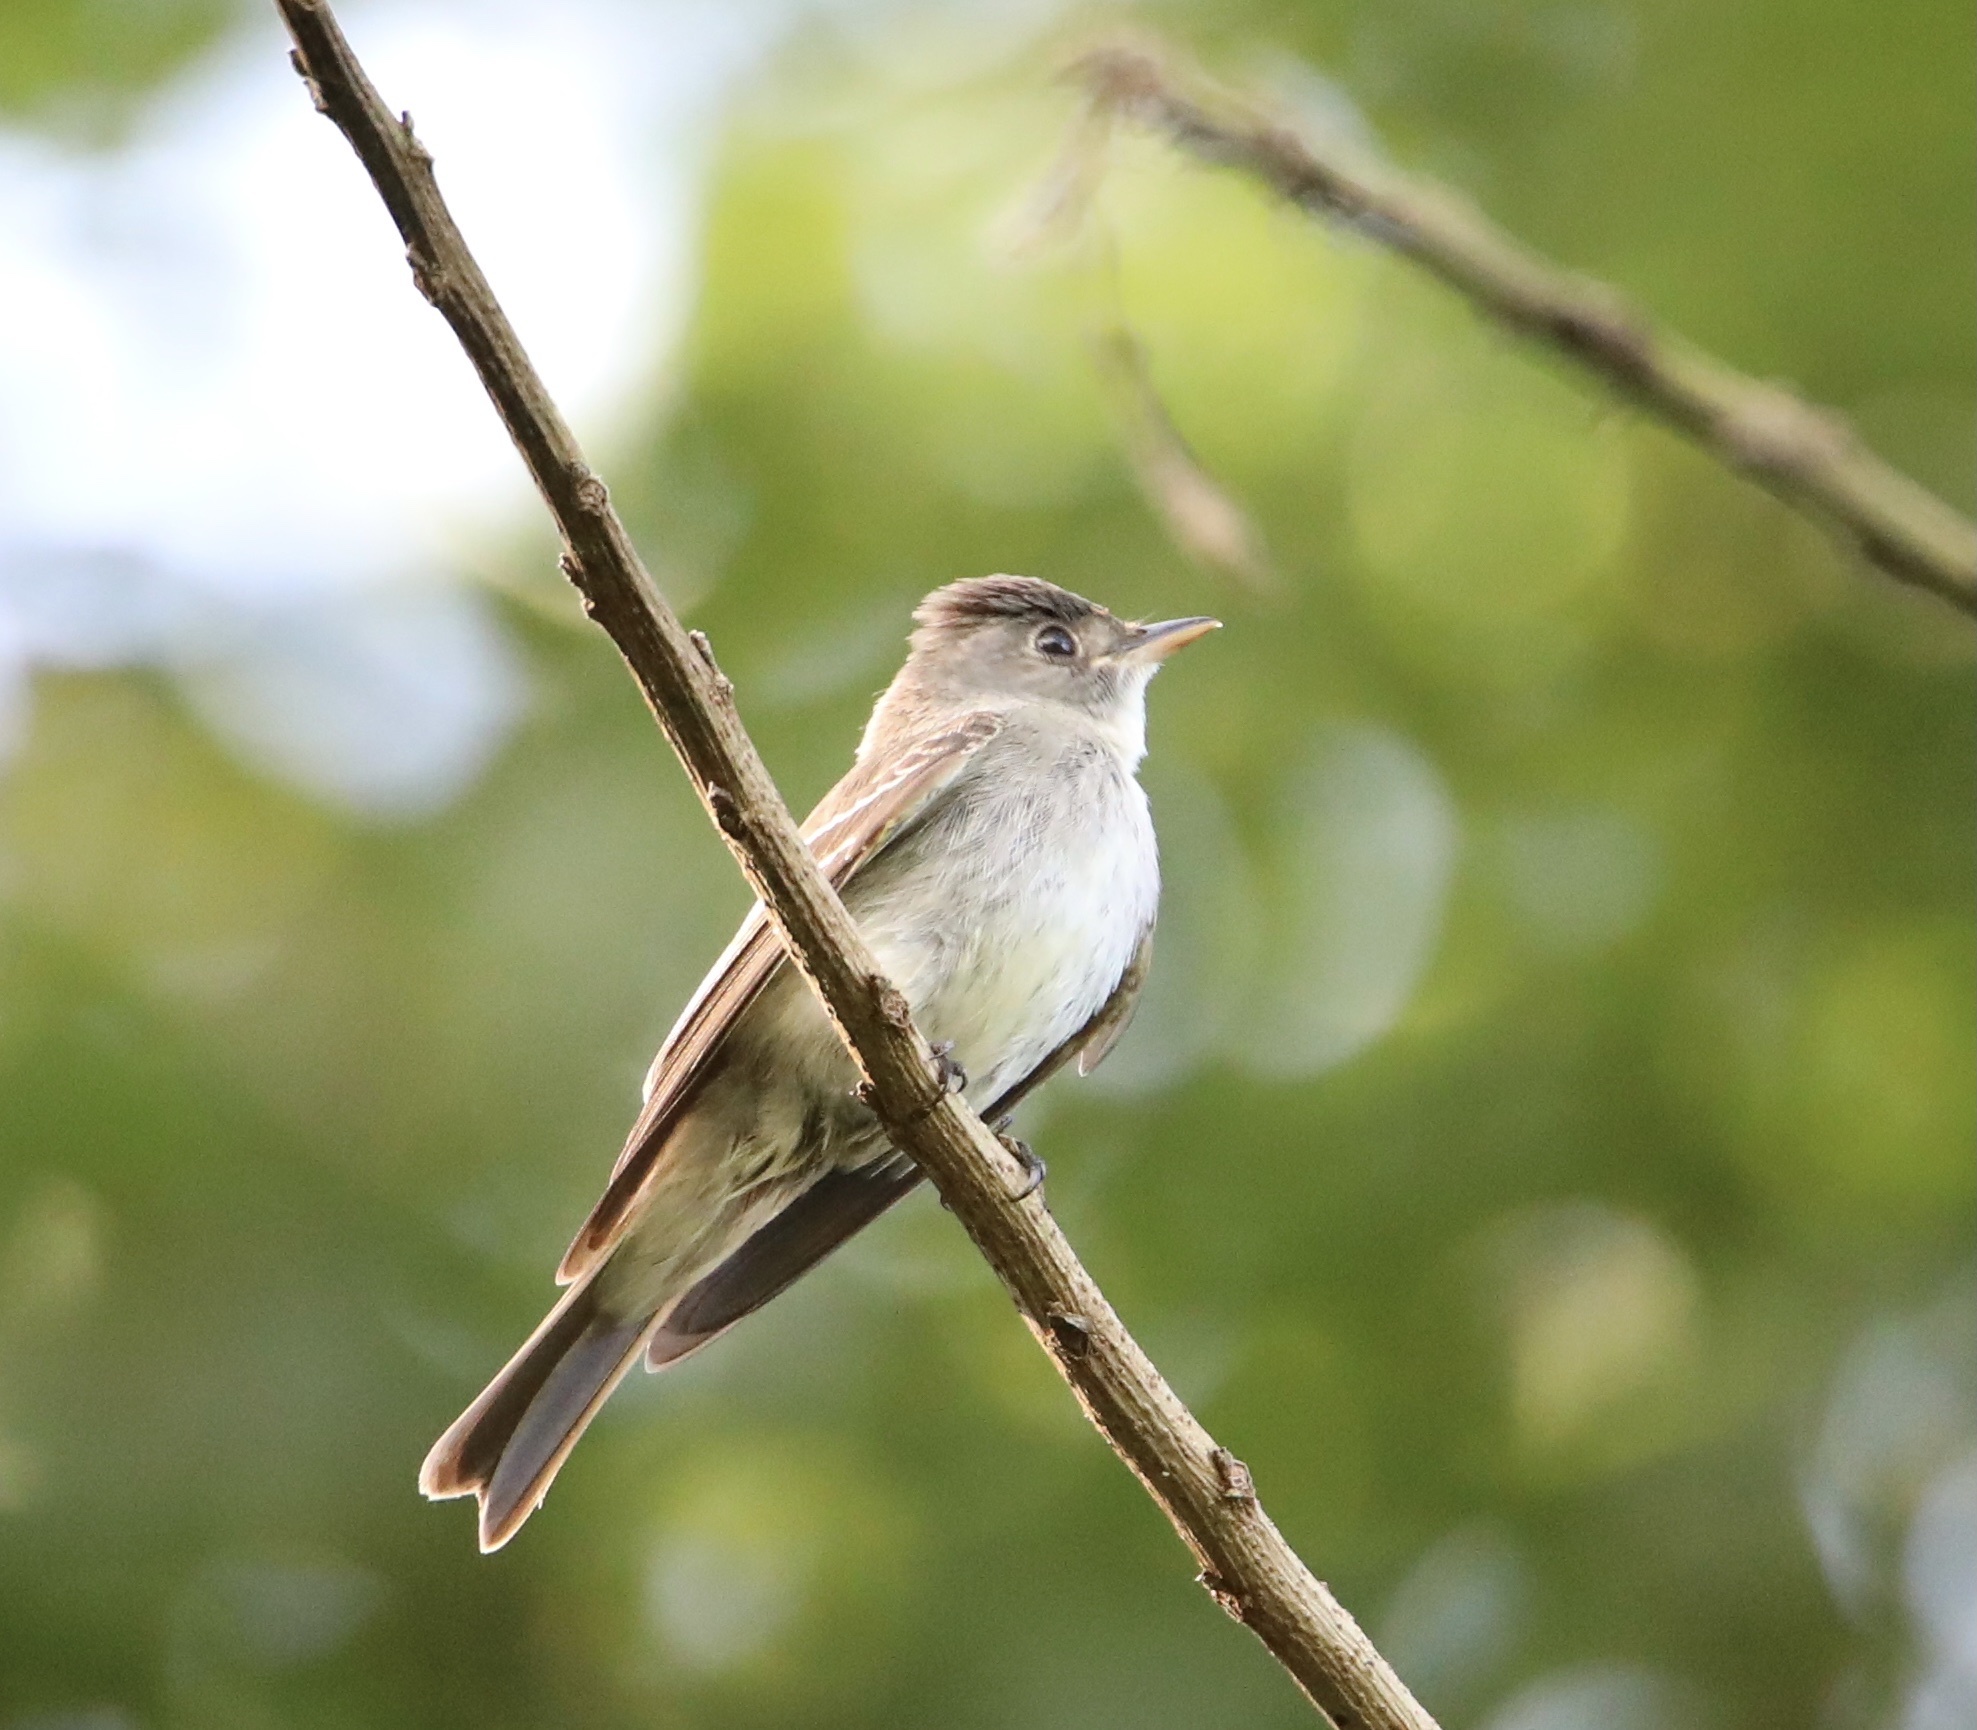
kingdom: Animalia
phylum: Chordata
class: Aves
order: Passeriformes
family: Tyrannidae
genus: Contopus
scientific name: Contopus virens
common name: Eastern wood-pewee
